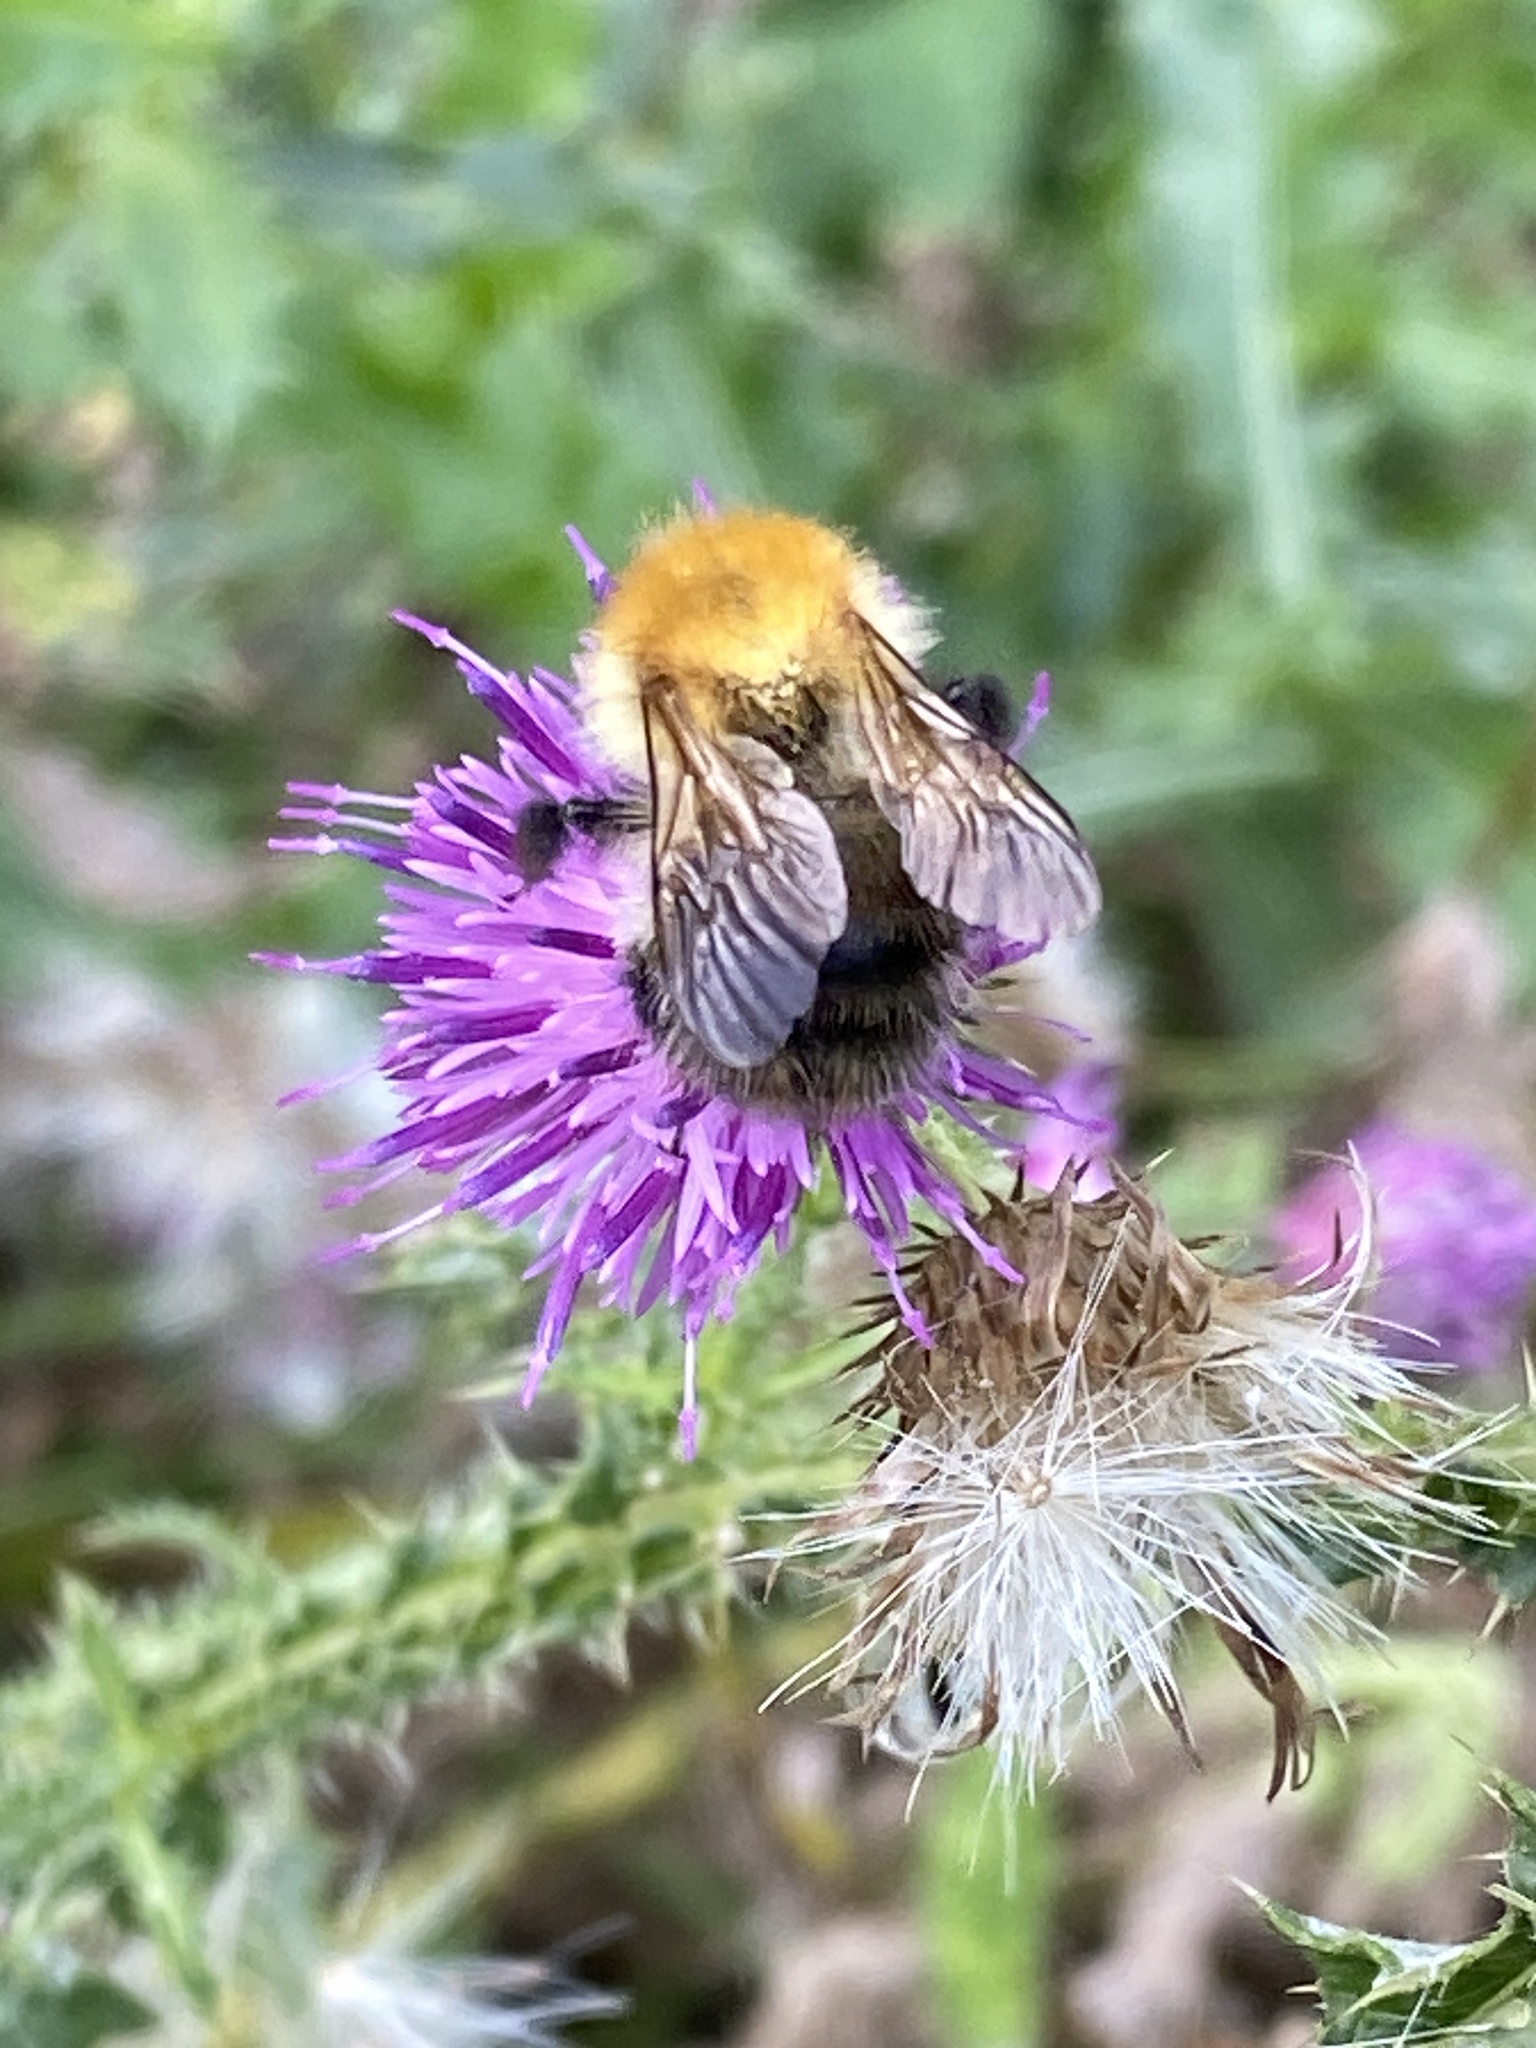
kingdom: Animalia
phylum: Arthropoda
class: Insecta
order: Hymenoptera
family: Apidae
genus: Bombus
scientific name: Bombus pascuorum
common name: Common carder bee
